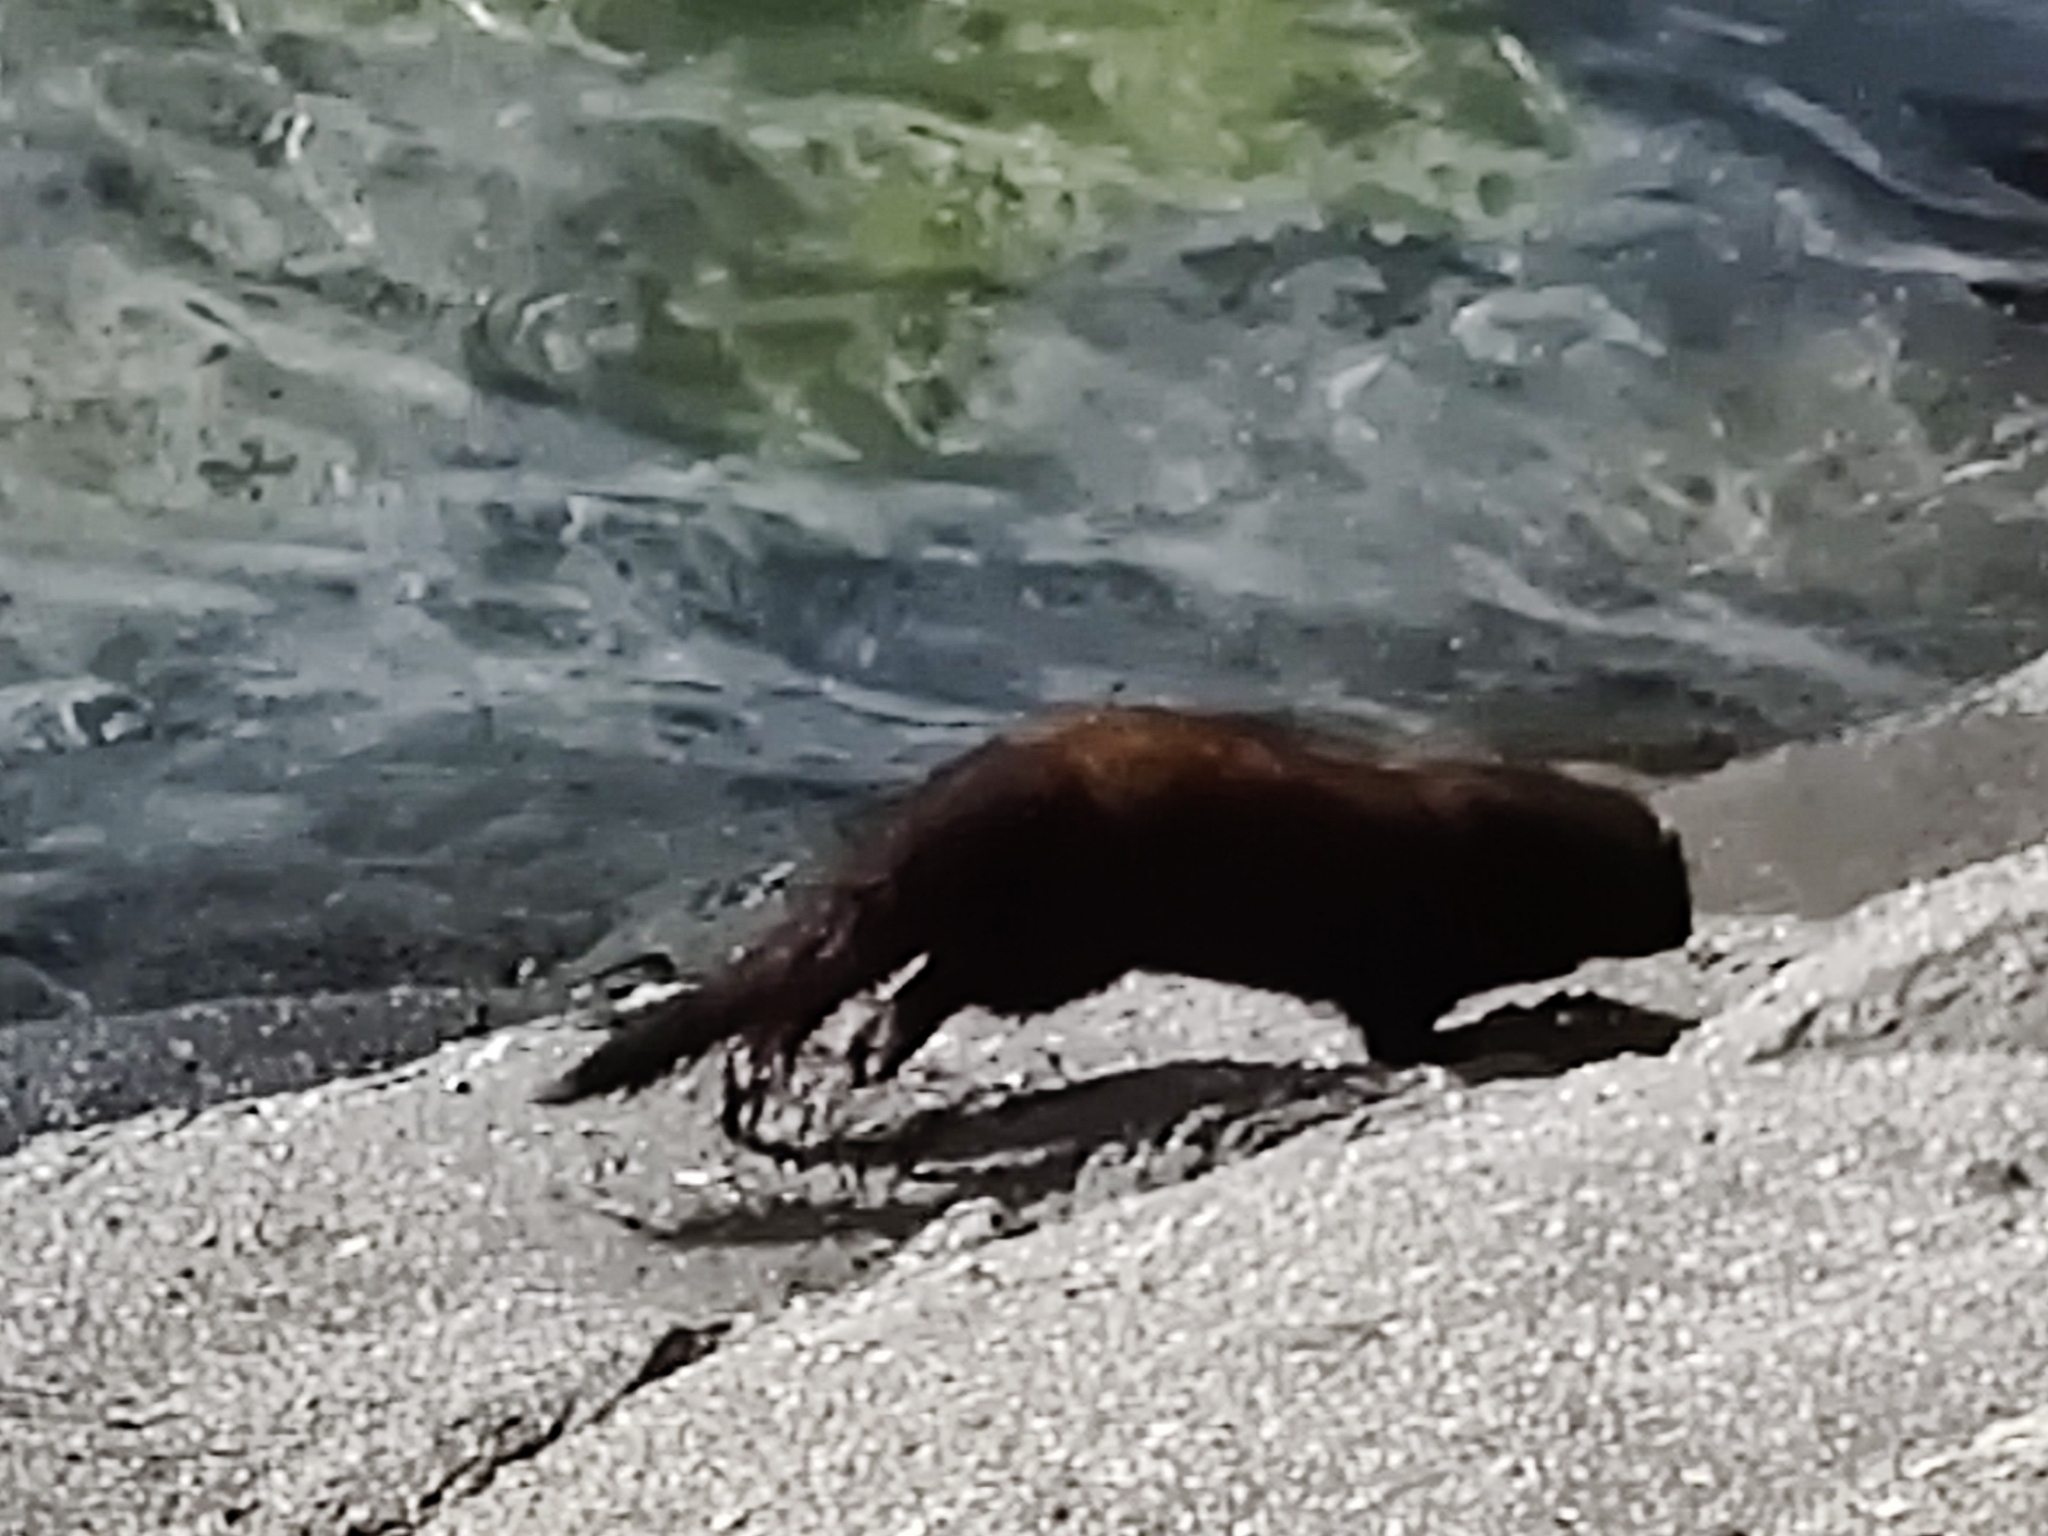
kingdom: Animalia
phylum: Chordata
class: Mammalia
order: Carnivora
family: Mustelidae
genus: Mustela
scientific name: Mustela
